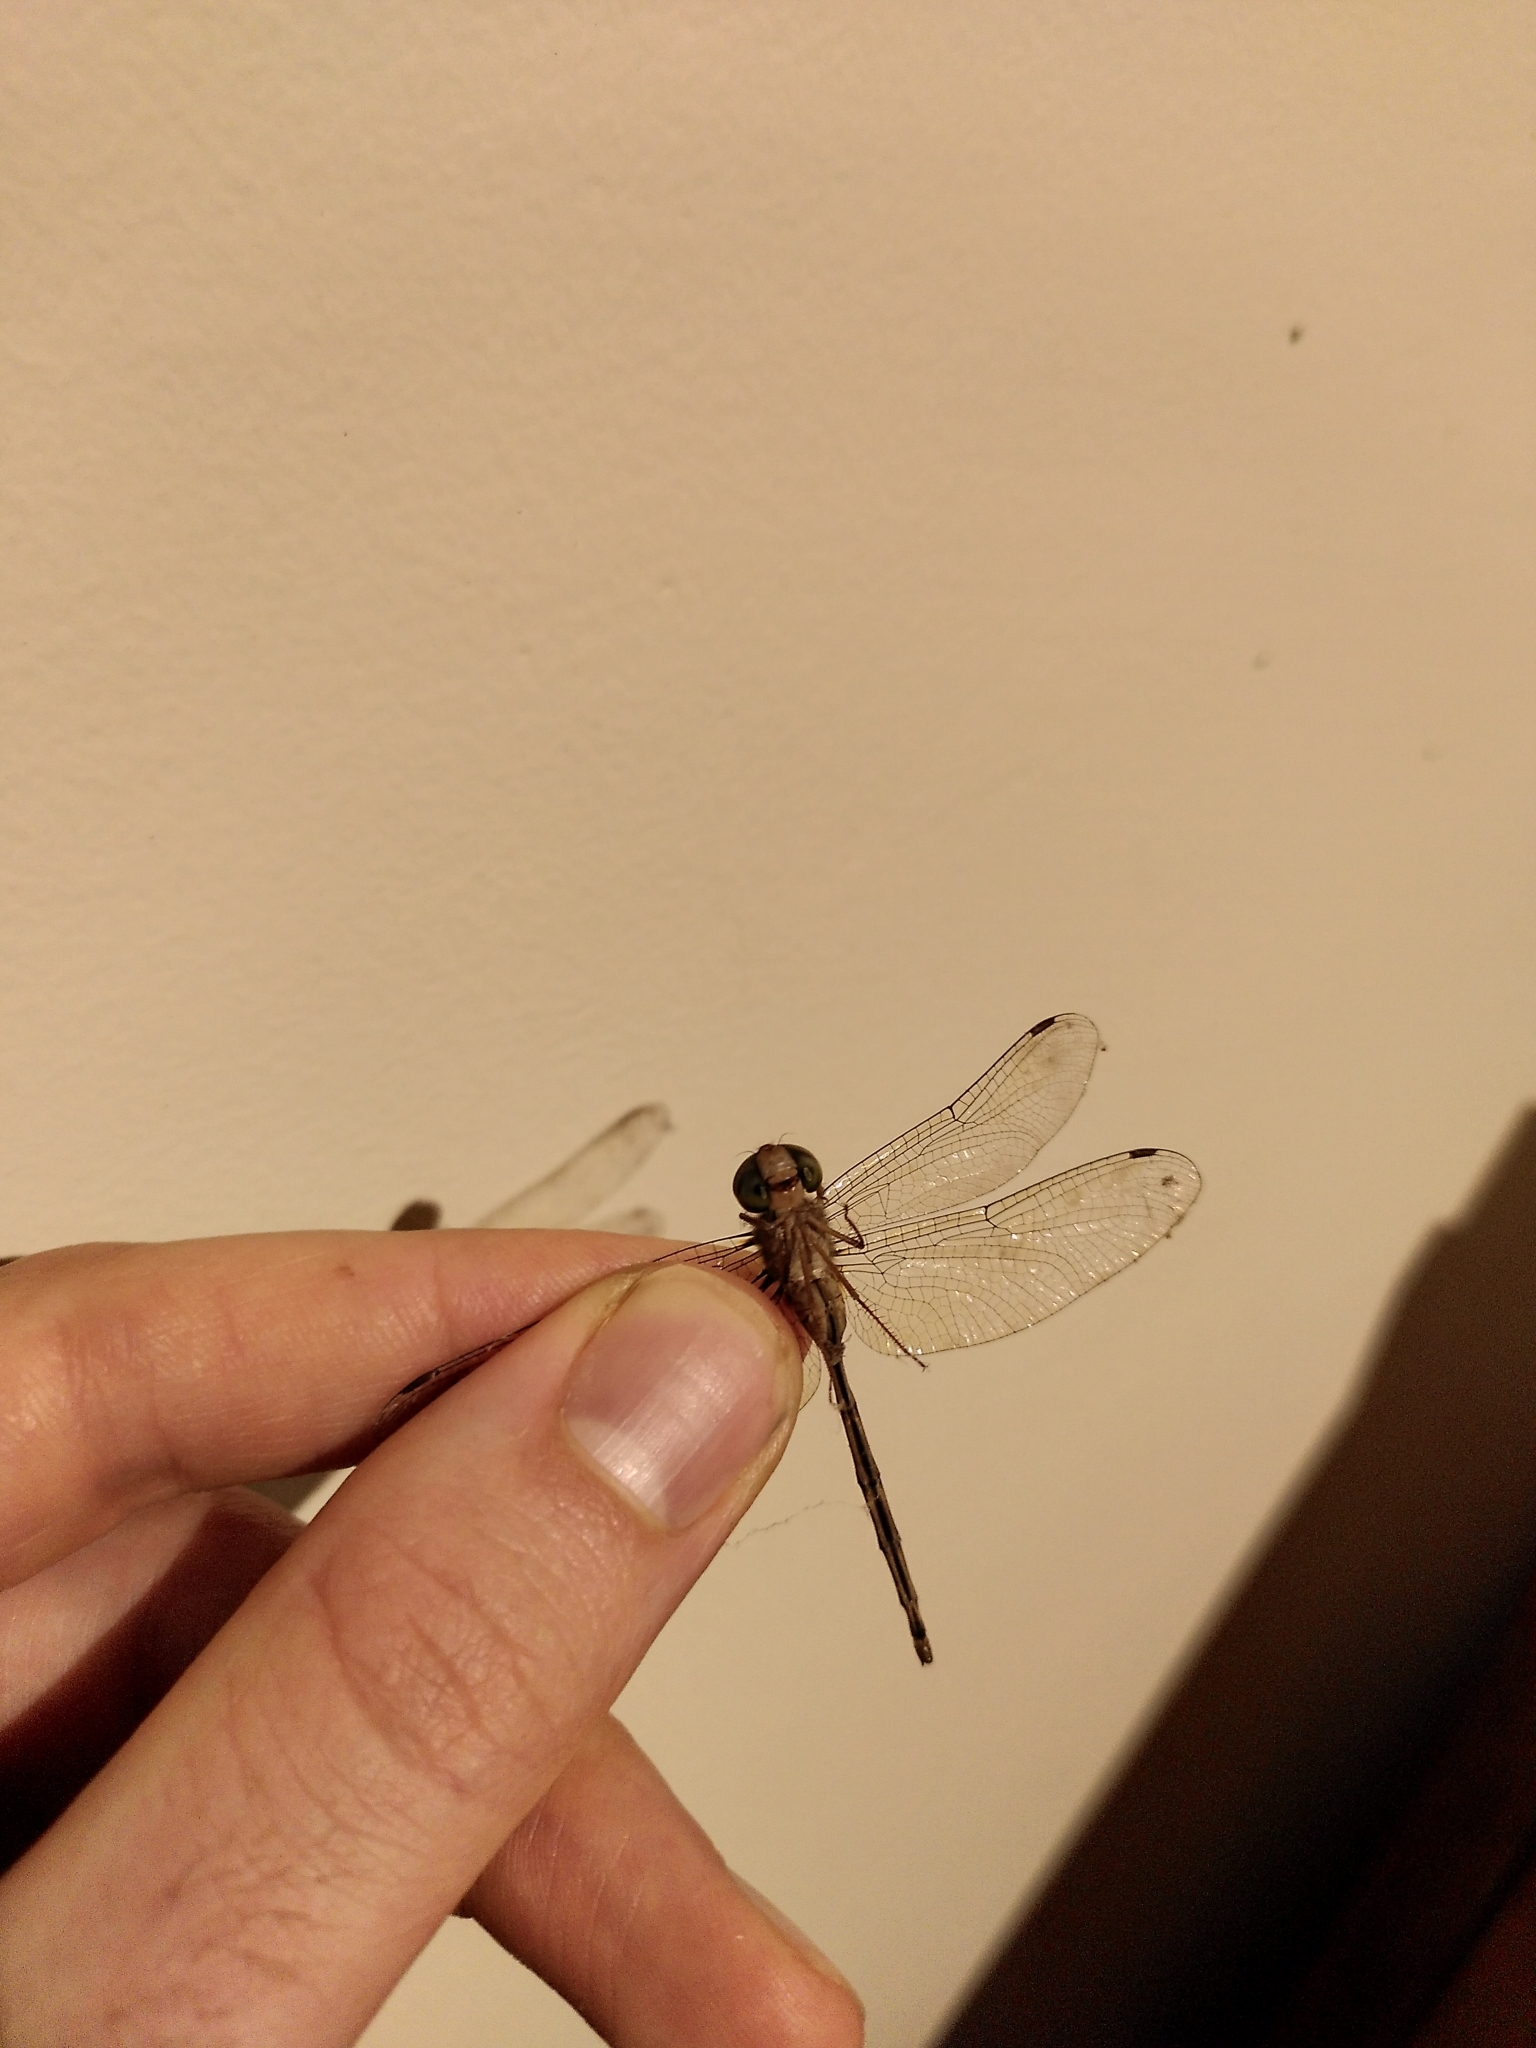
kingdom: Animalia
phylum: Arthropoda
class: Insecta
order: Odonata
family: Libellulidae
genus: Zyxomma
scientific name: Zyxomma elgneri
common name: Short-tailed duskdarter
